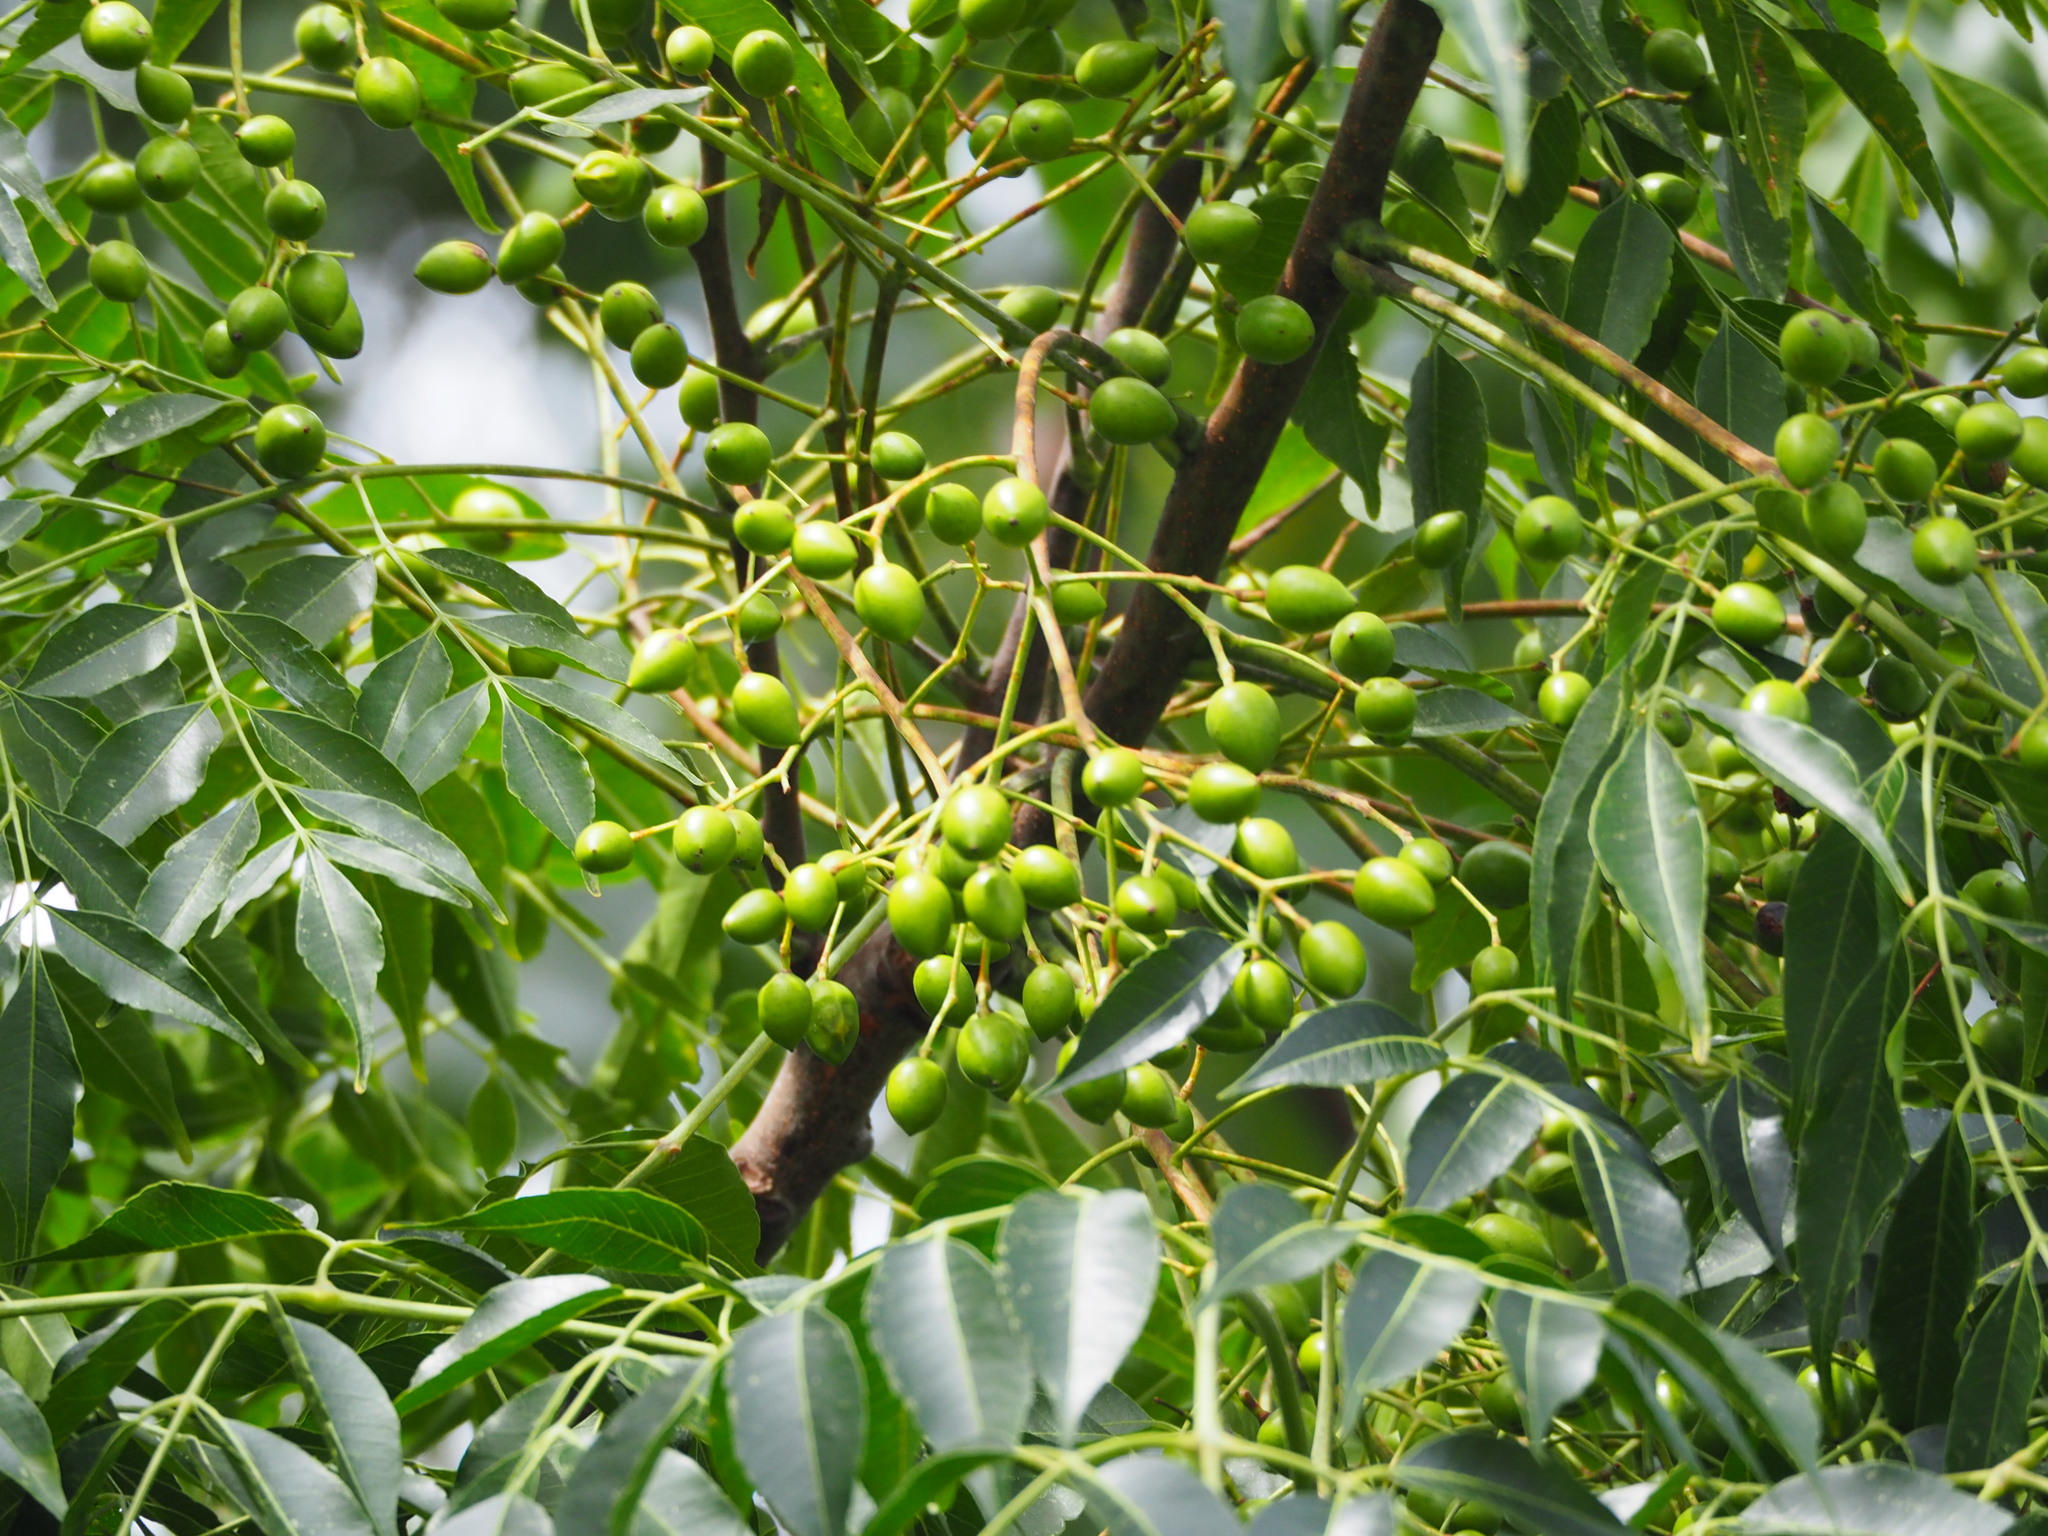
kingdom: Plantae
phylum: Tracheophyta
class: Magnoliopsida
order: Sapindales
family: Meliaceae
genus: Melia
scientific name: Melia azedarach
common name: Chinaberrytree
